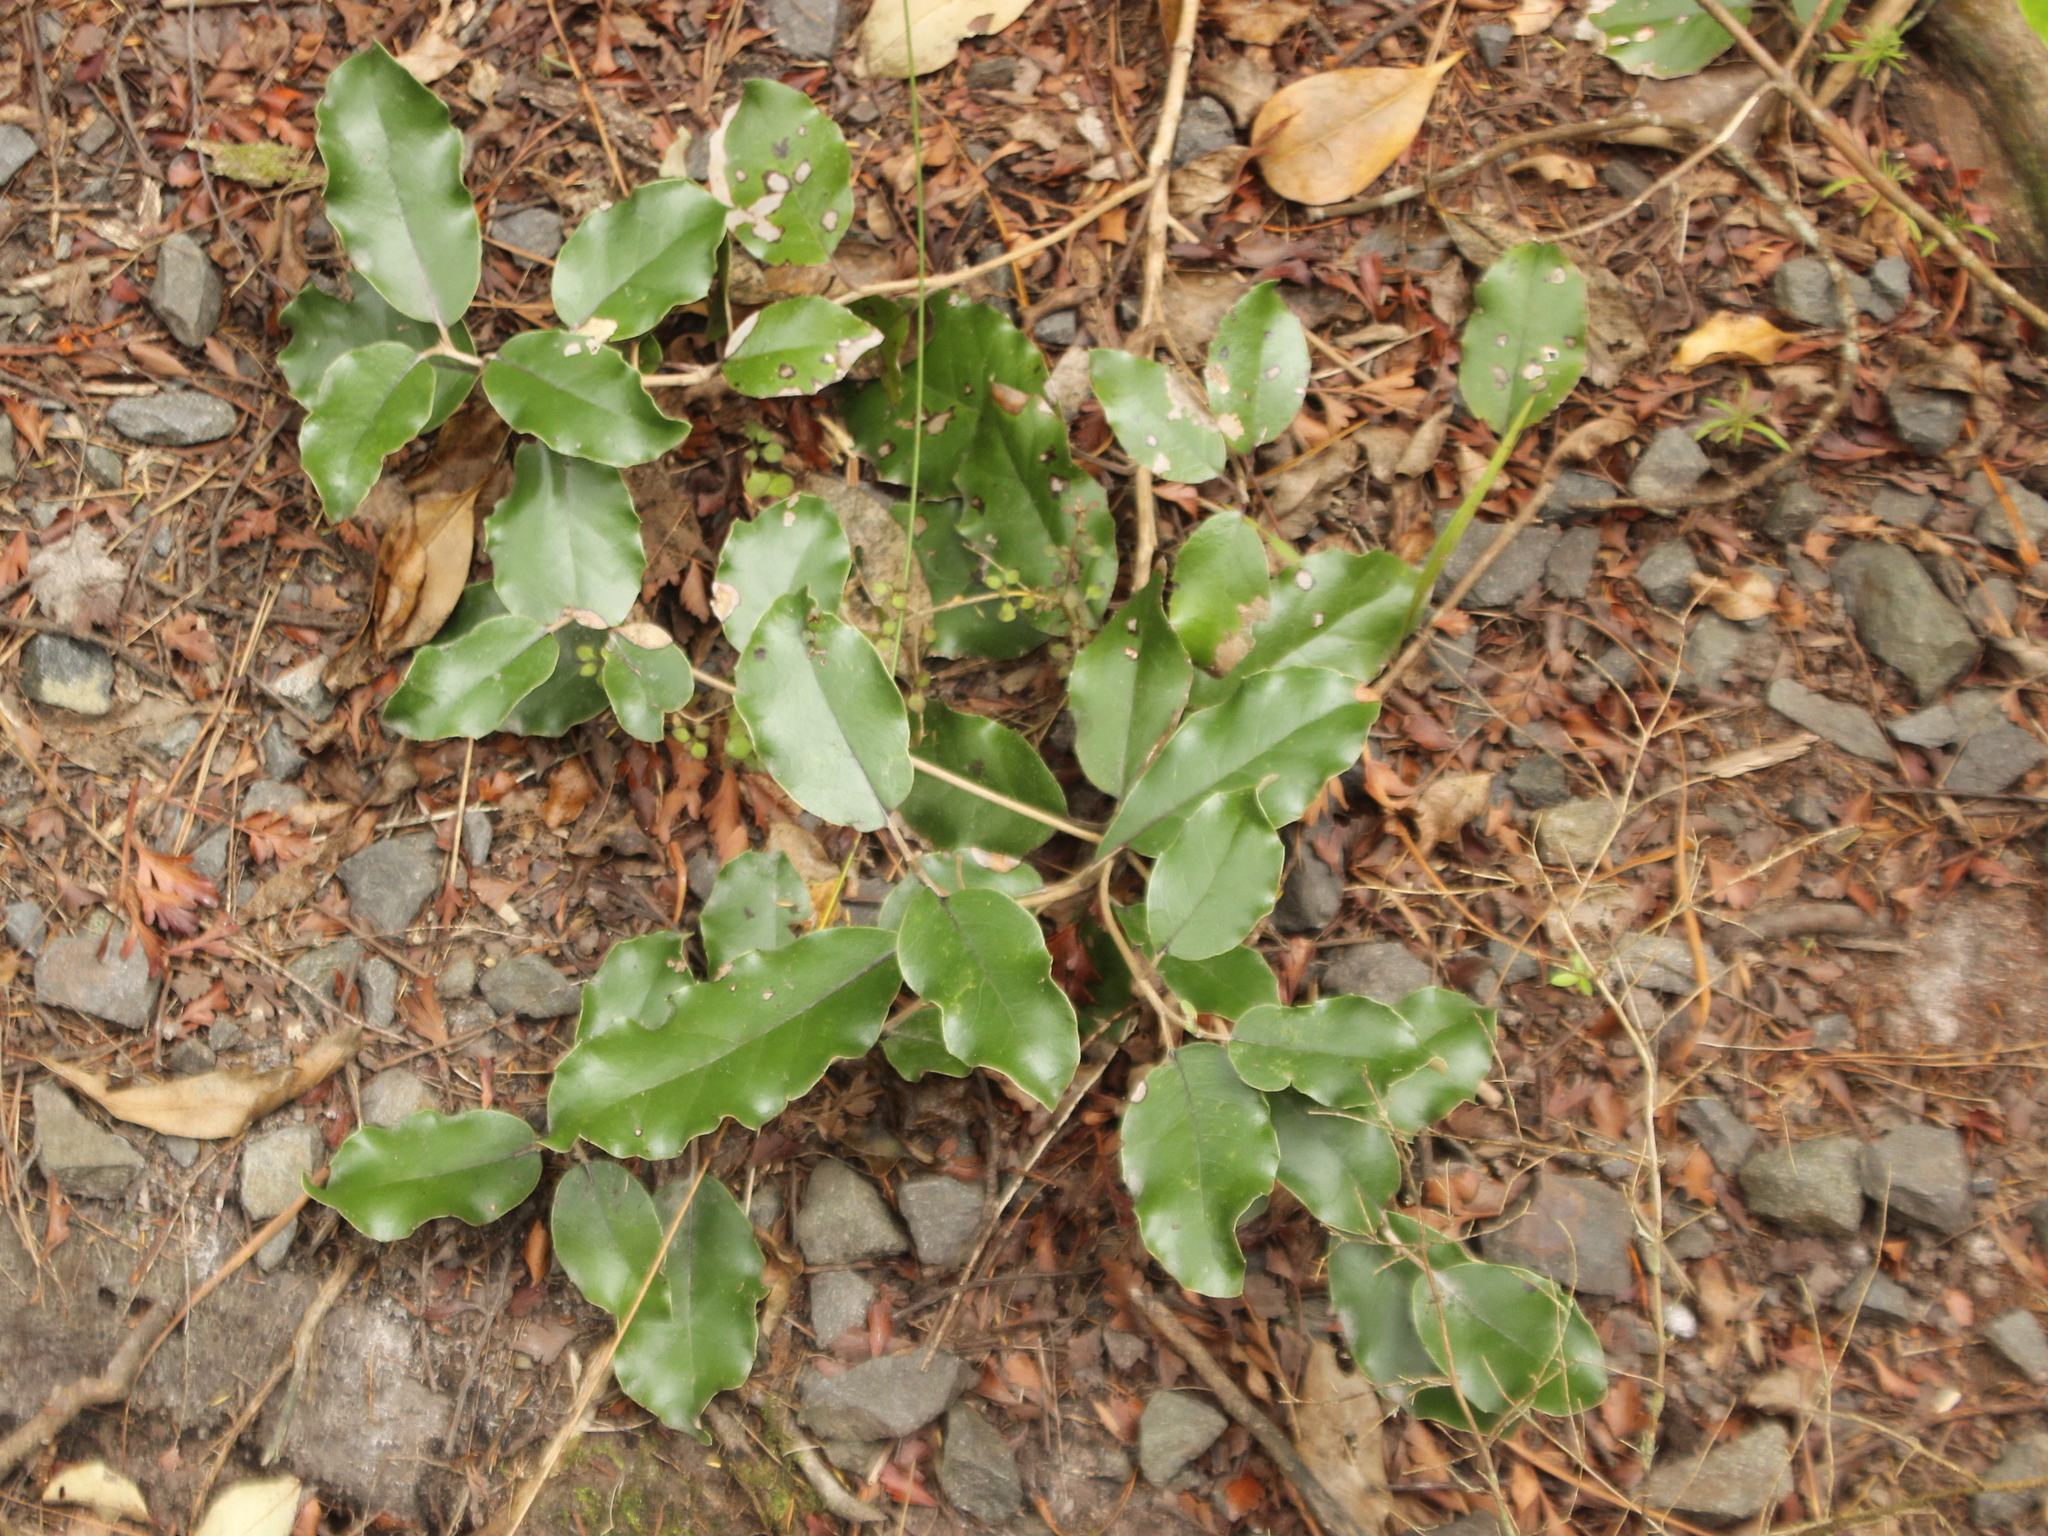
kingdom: Plantae
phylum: Tracheophyta
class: Magnoliopsida
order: Asterales
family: Asteraceae
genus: Olearia
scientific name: Olearia furfuracea
